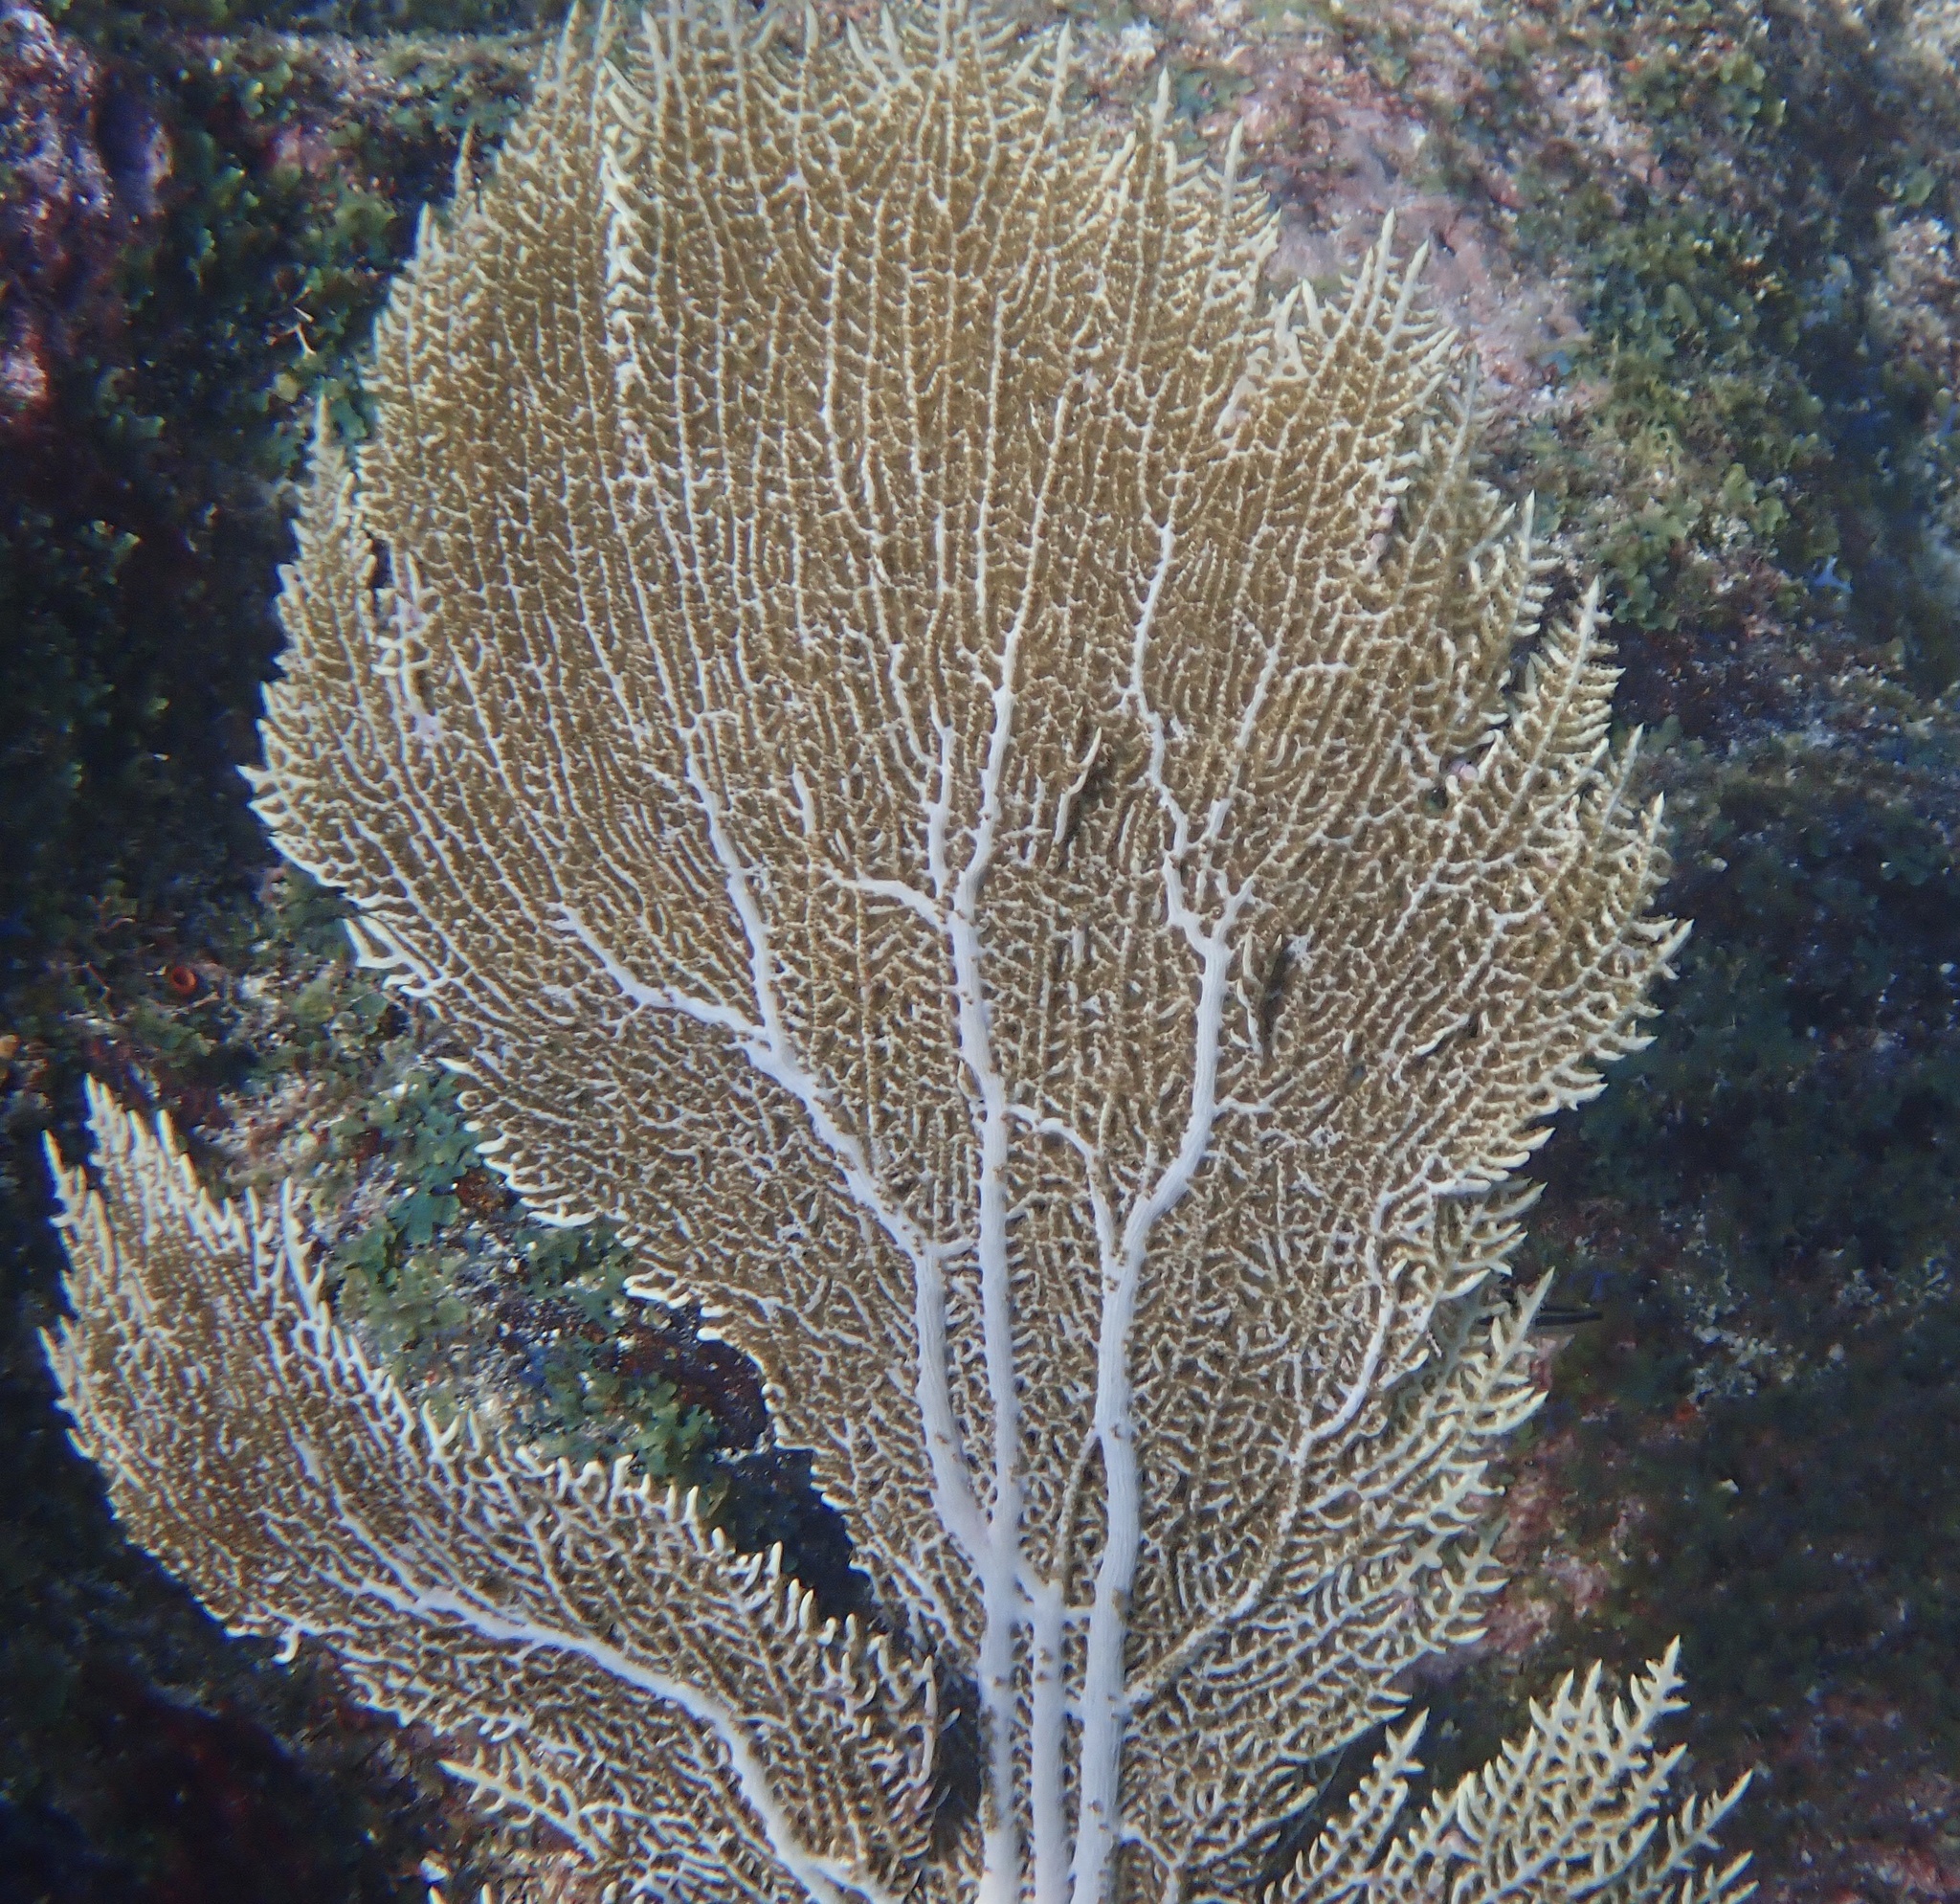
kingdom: Animalia
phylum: Cnidaria
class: Anthozoa
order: Malacalcyonacea
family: Gorgoniidae
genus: Gorgonia
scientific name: Gorgonia ventalina
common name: Common sea fan
